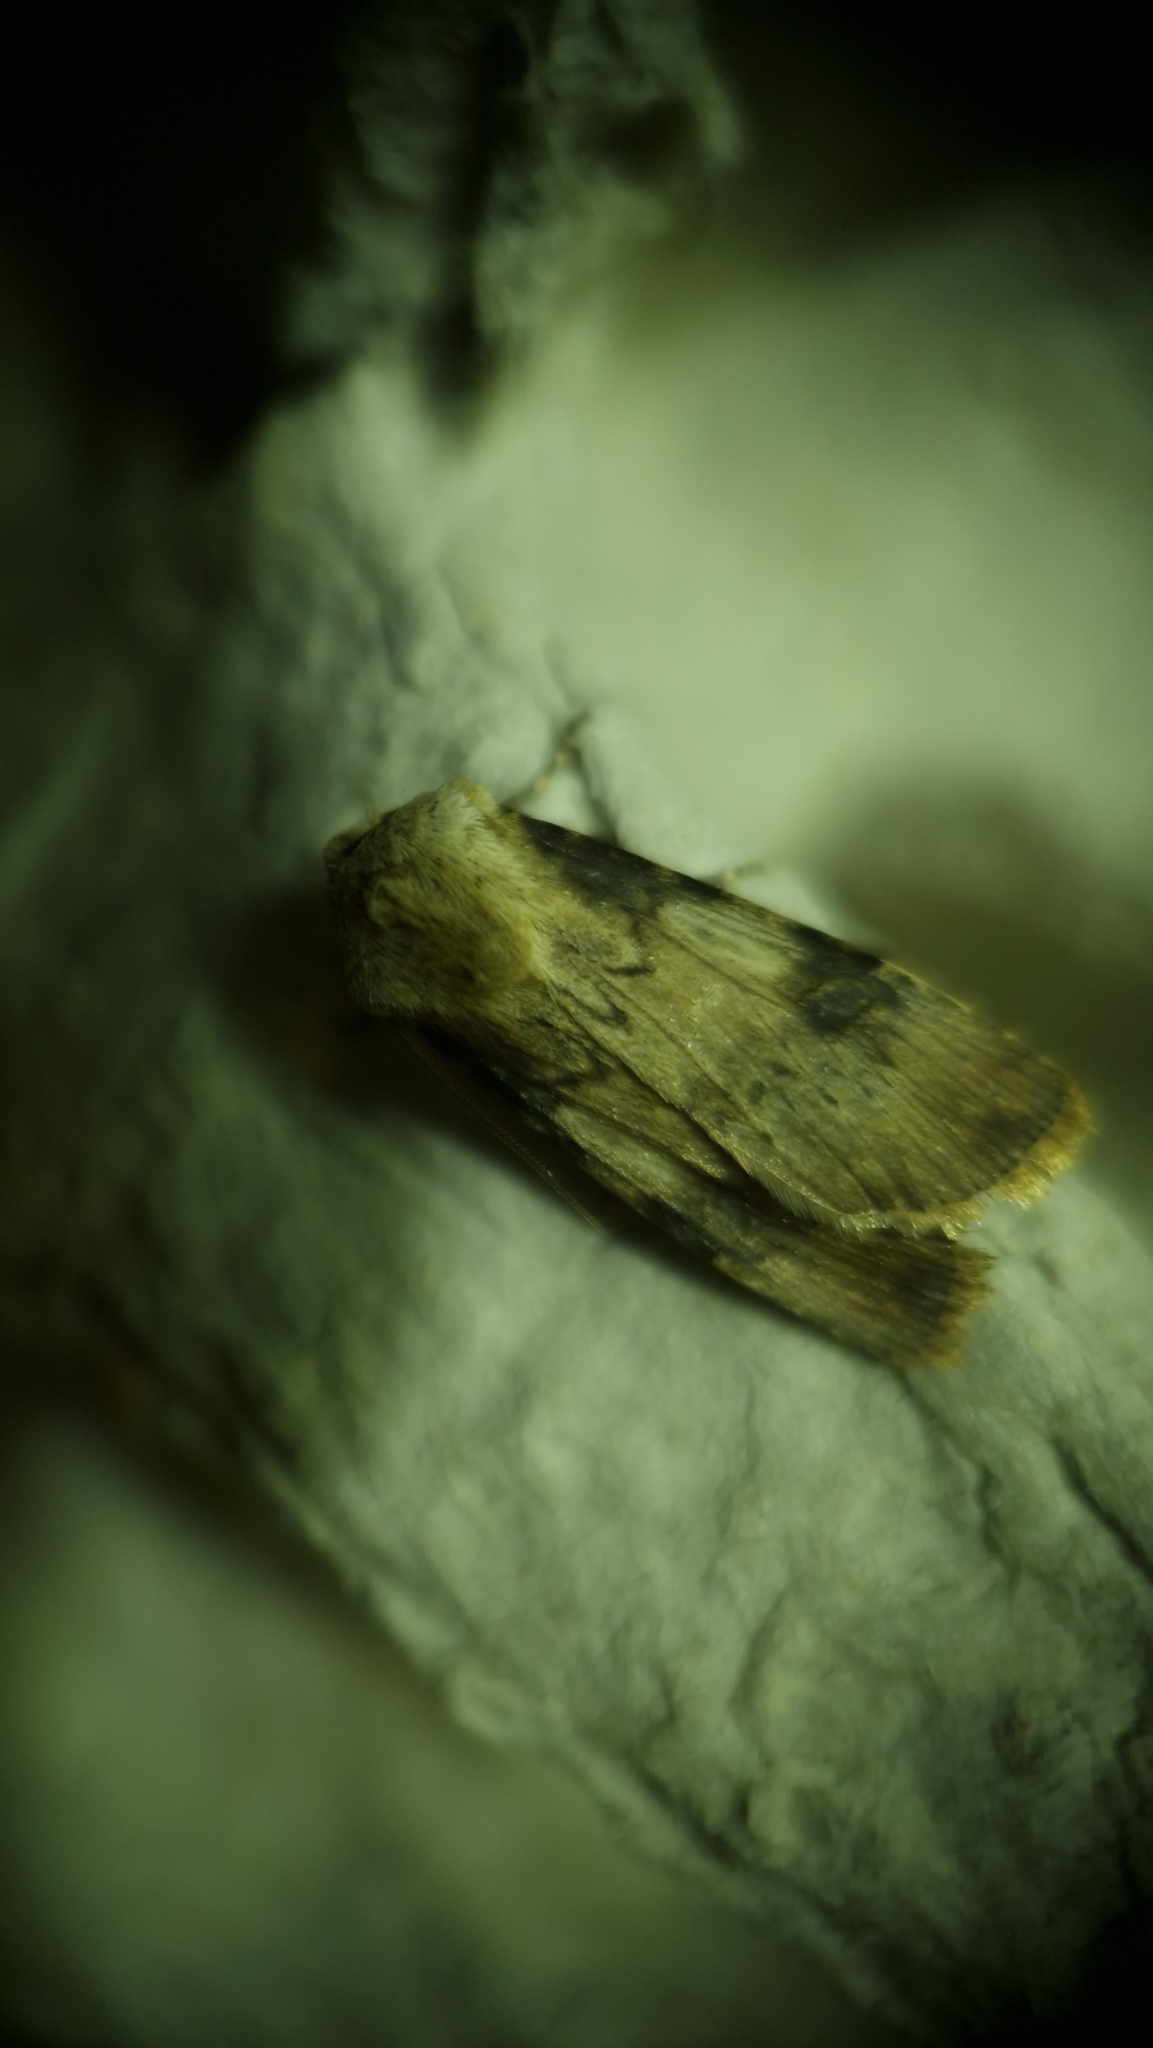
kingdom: Animalia
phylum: Arthropoda
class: Insecta
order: Lepidoptera
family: Noctuidae
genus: Agrotis
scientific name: Agrotis puta
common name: Shuttle-shaped dart
